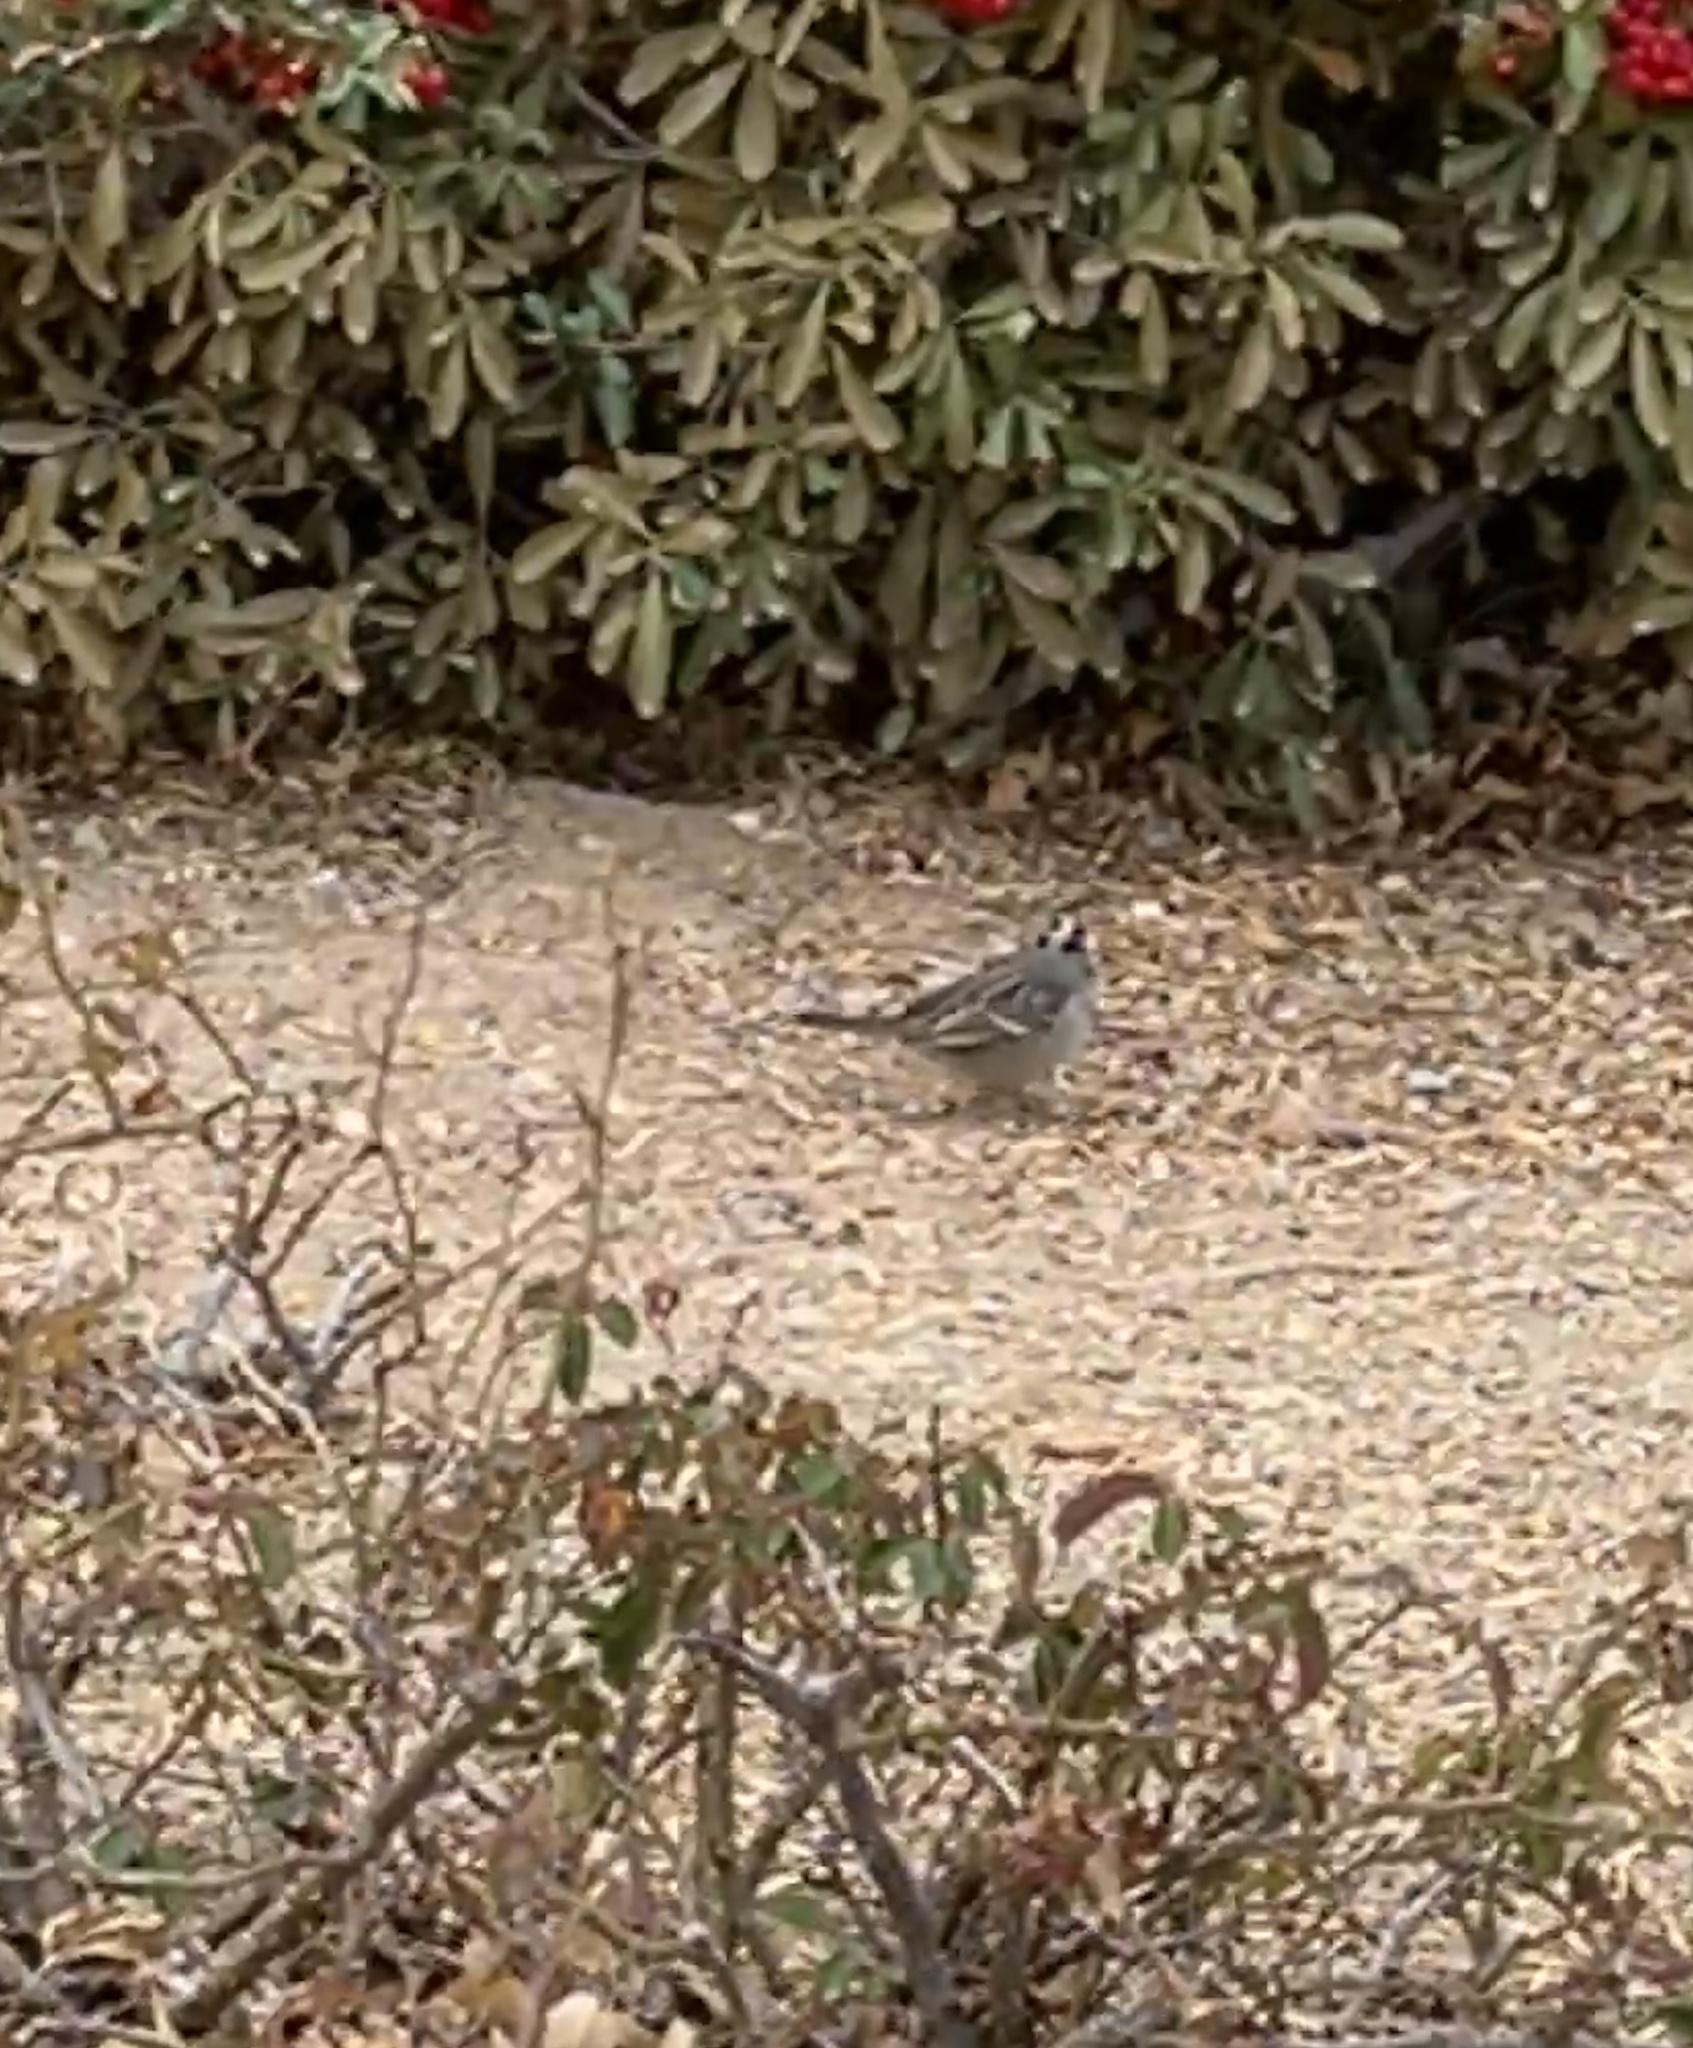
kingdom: Animalia
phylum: Chordata
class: Aves
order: Passeriformes
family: Passerellidae
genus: Zonotrichia
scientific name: Zonotrichia leucophrys
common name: White-crowned sparrow
